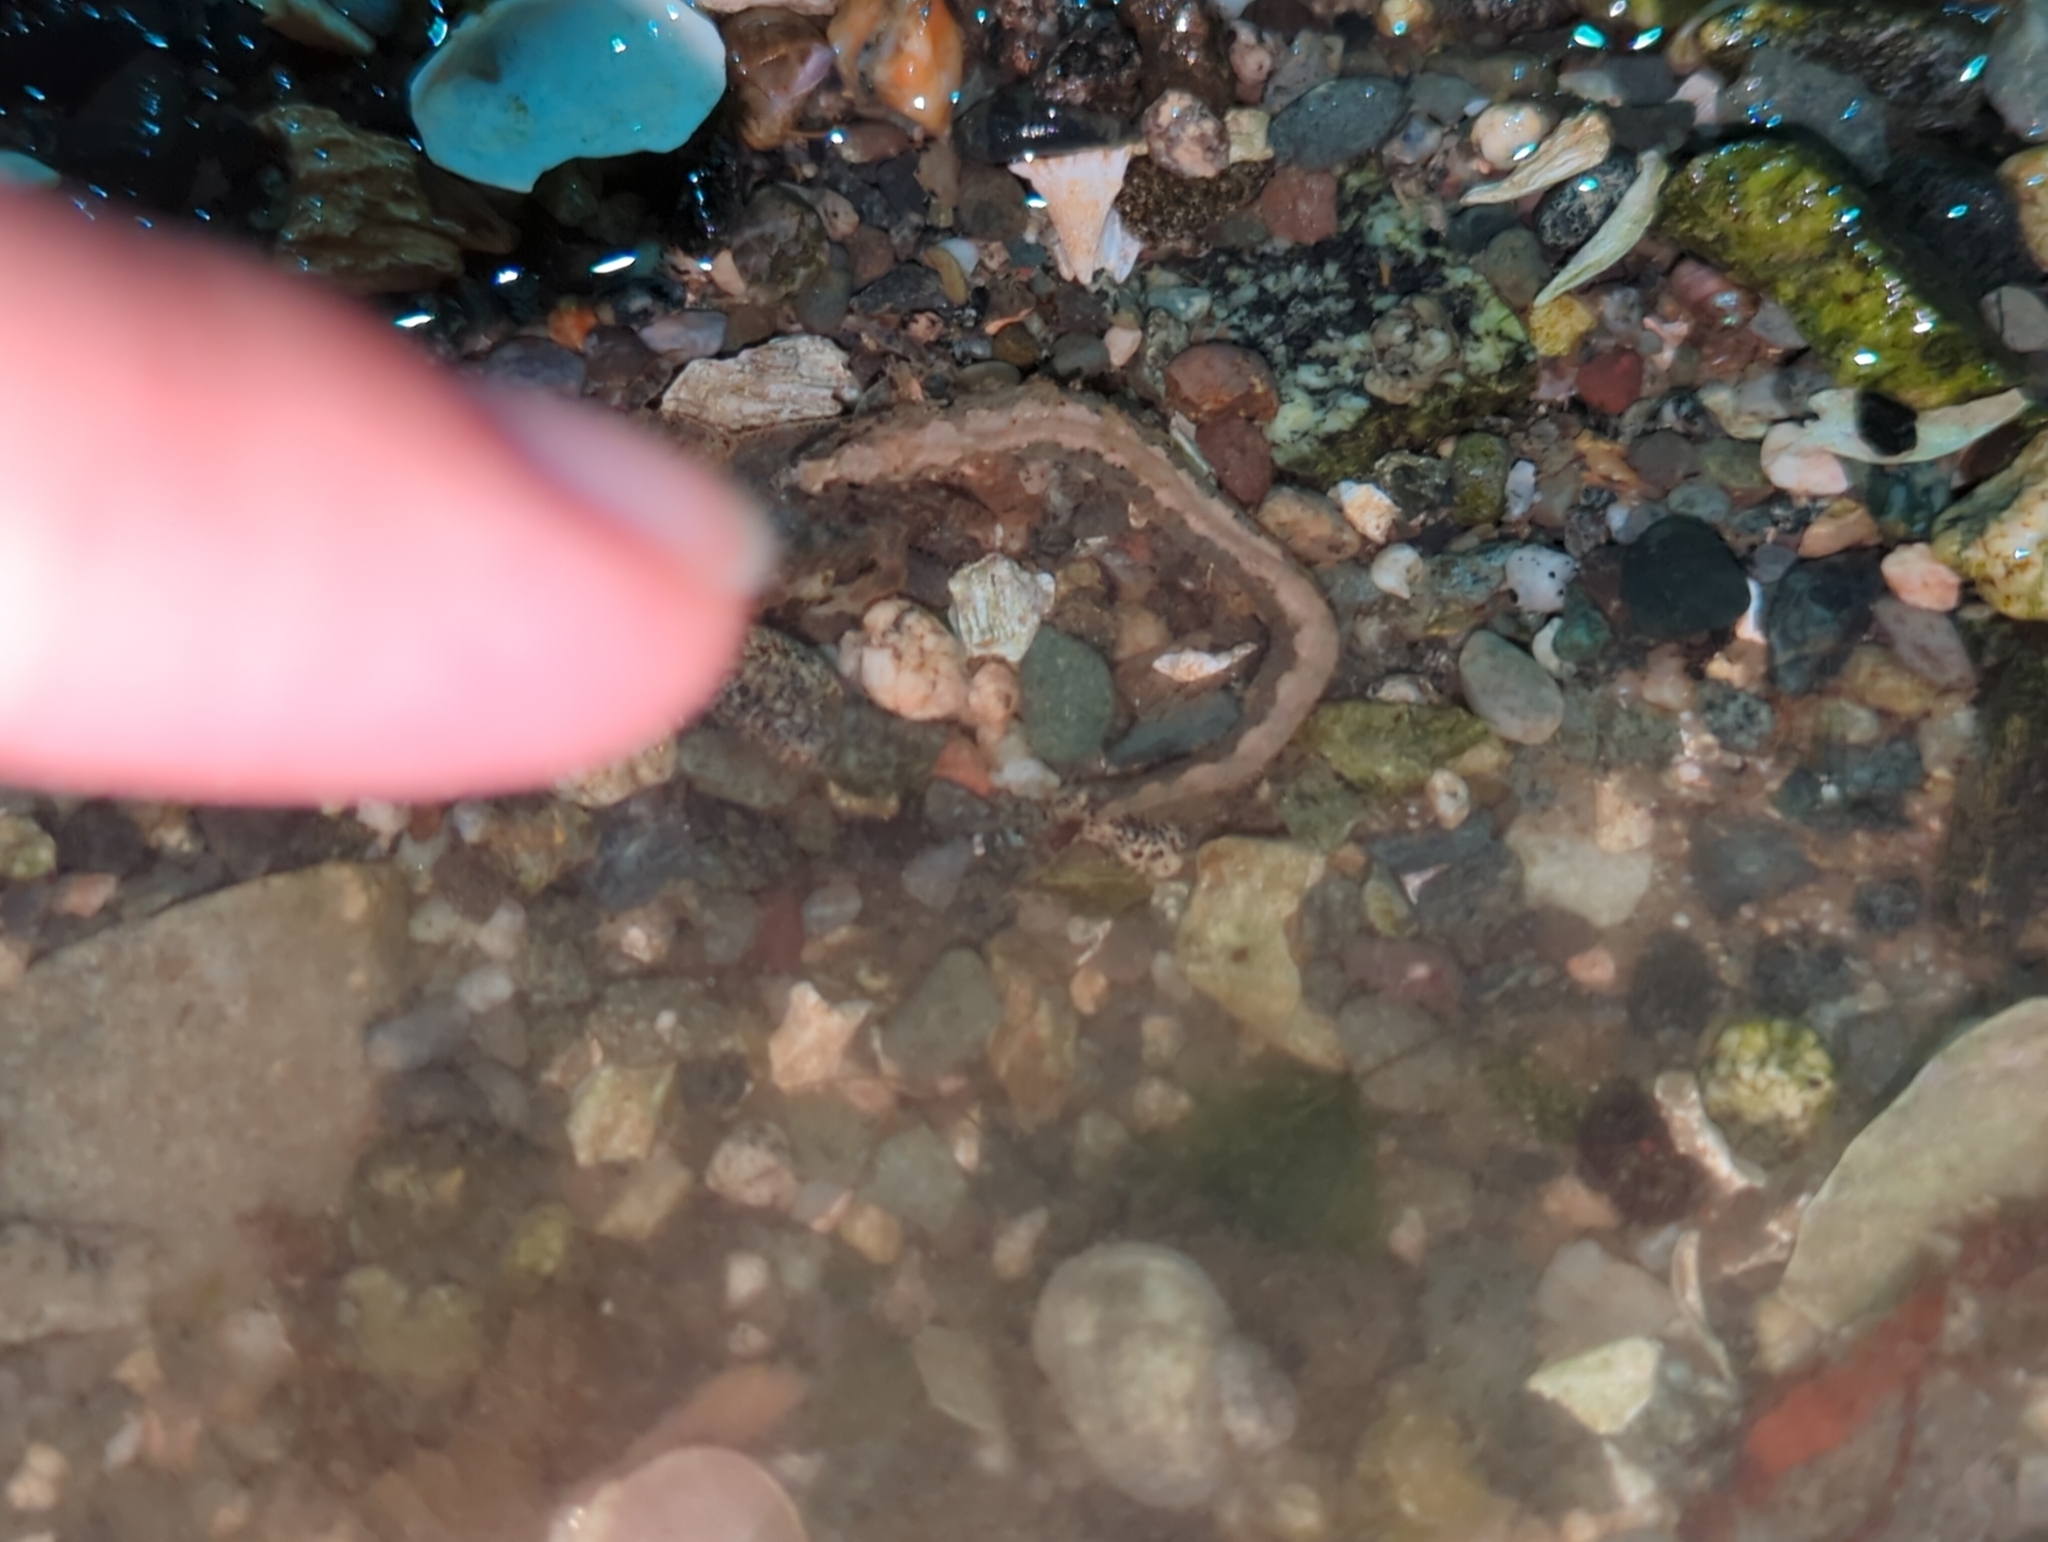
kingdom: Animalia
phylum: Chordata
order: Perciformes
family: Stichaeidae
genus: Anoplarchus
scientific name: Anoplarchus purpurescens
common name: High cockscomb
